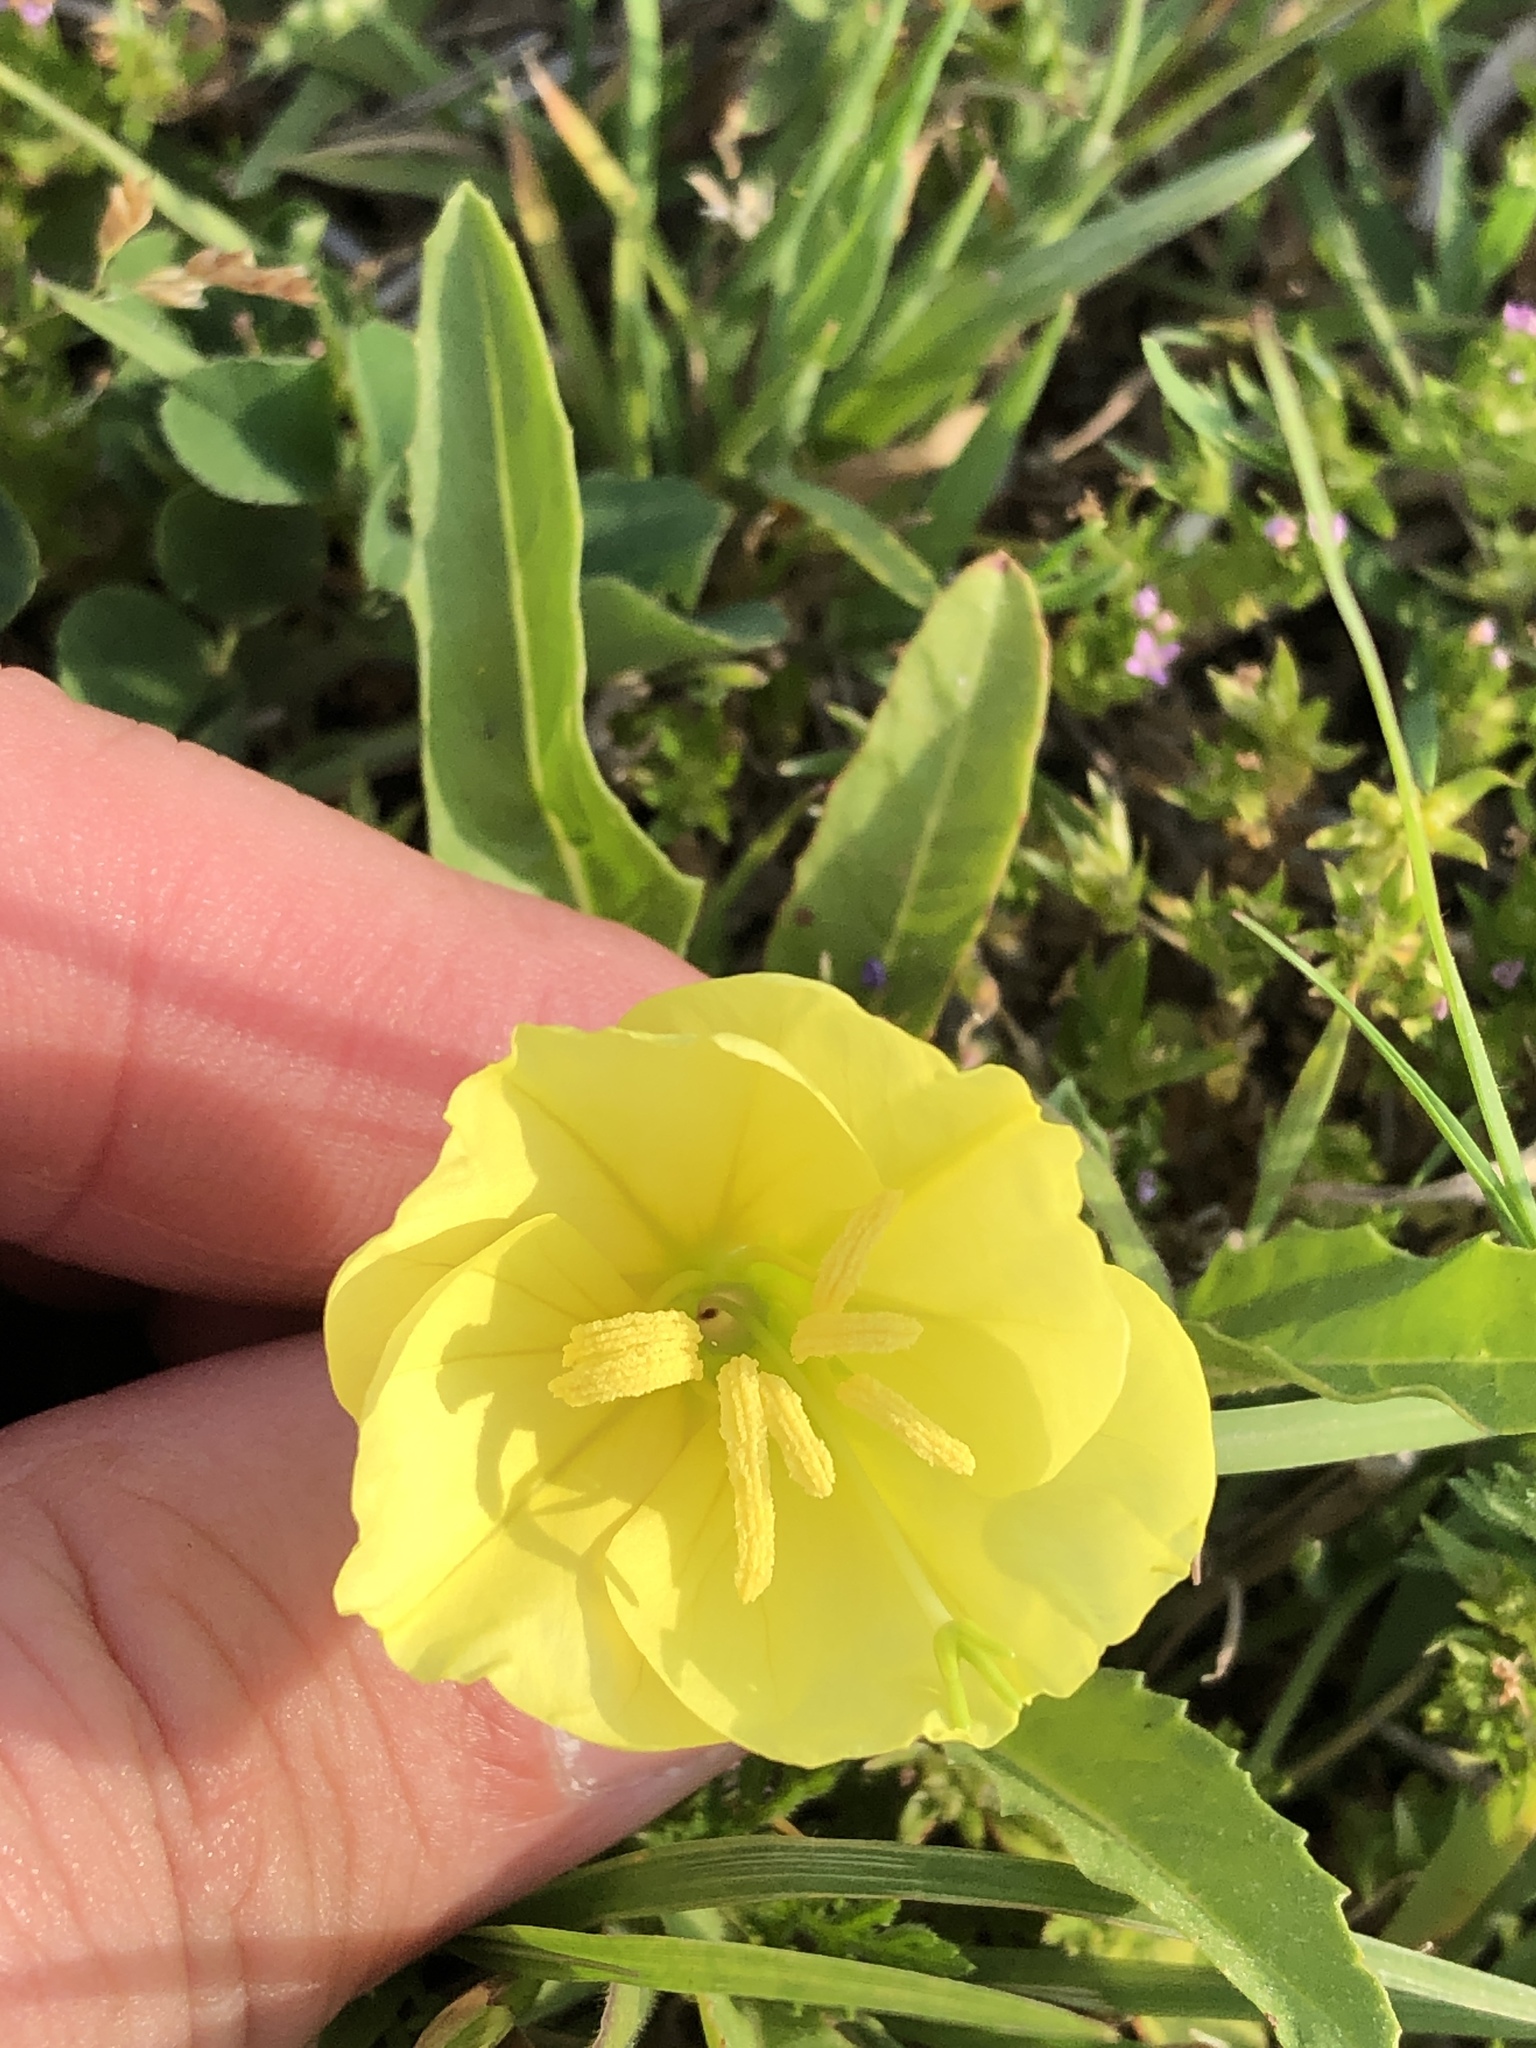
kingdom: Plantae
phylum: Tracheophyta
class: Magnoliopsida
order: Myrtales
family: Onagraceae
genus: Oenothera
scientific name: Oenothera triloba
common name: Sessile evening-primrose
